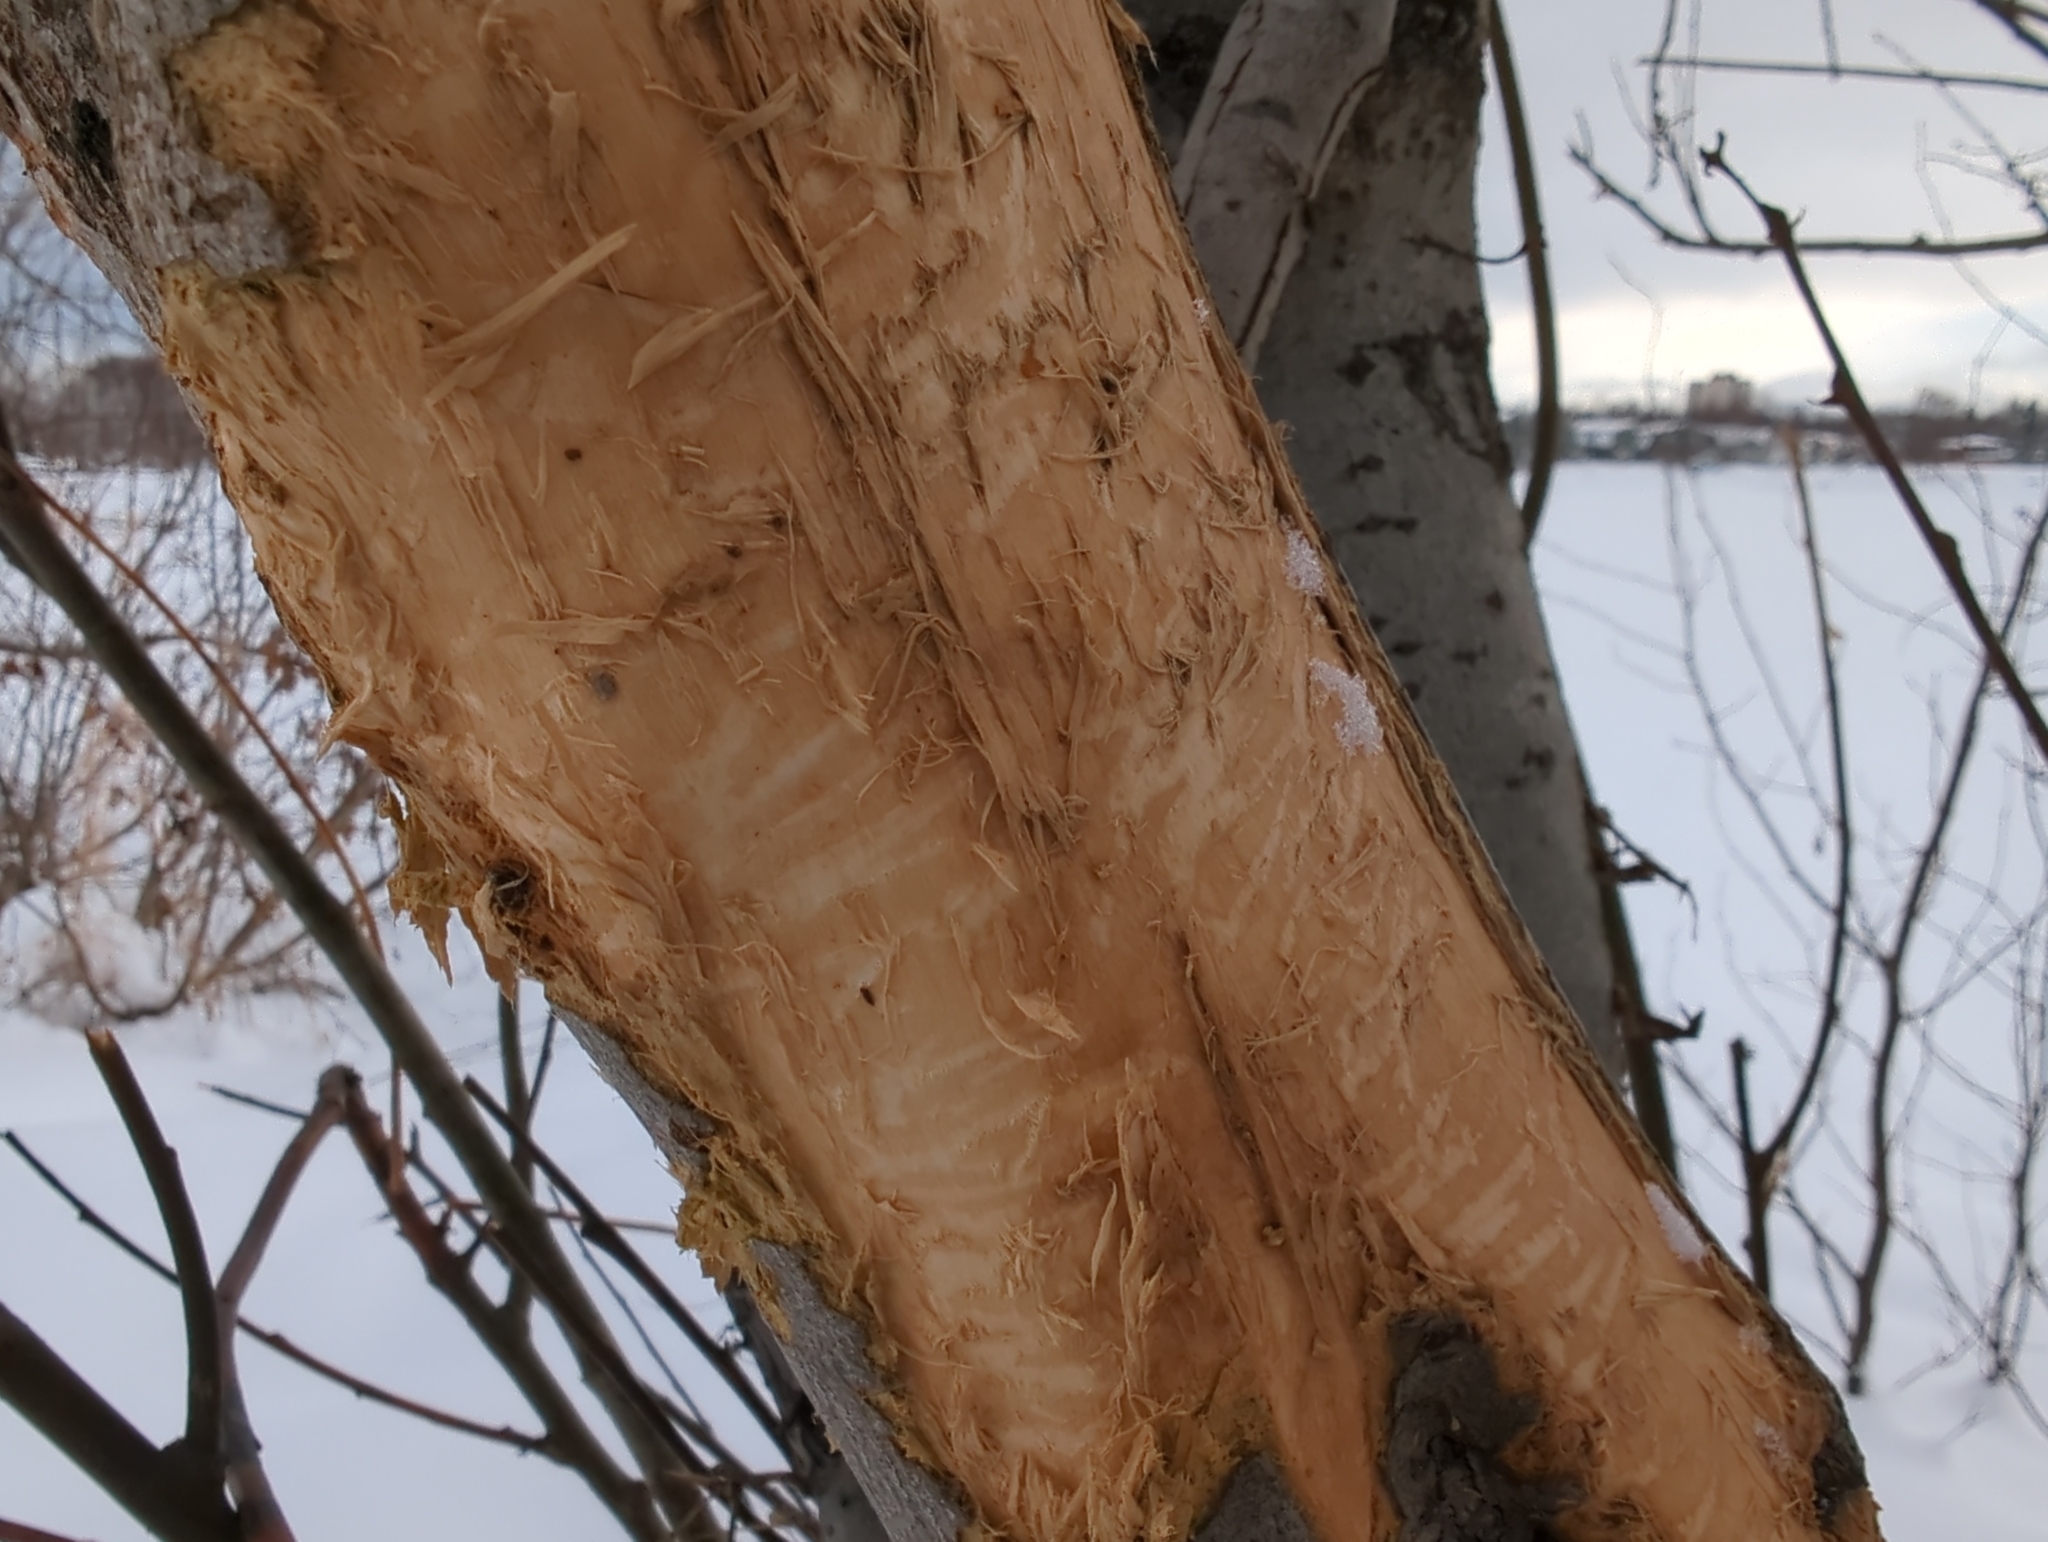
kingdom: Animalia
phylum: Chordata
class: Mammalia
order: Artiodactyla
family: Cervidae
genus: Alces
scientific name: Alces alces
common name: Moose
